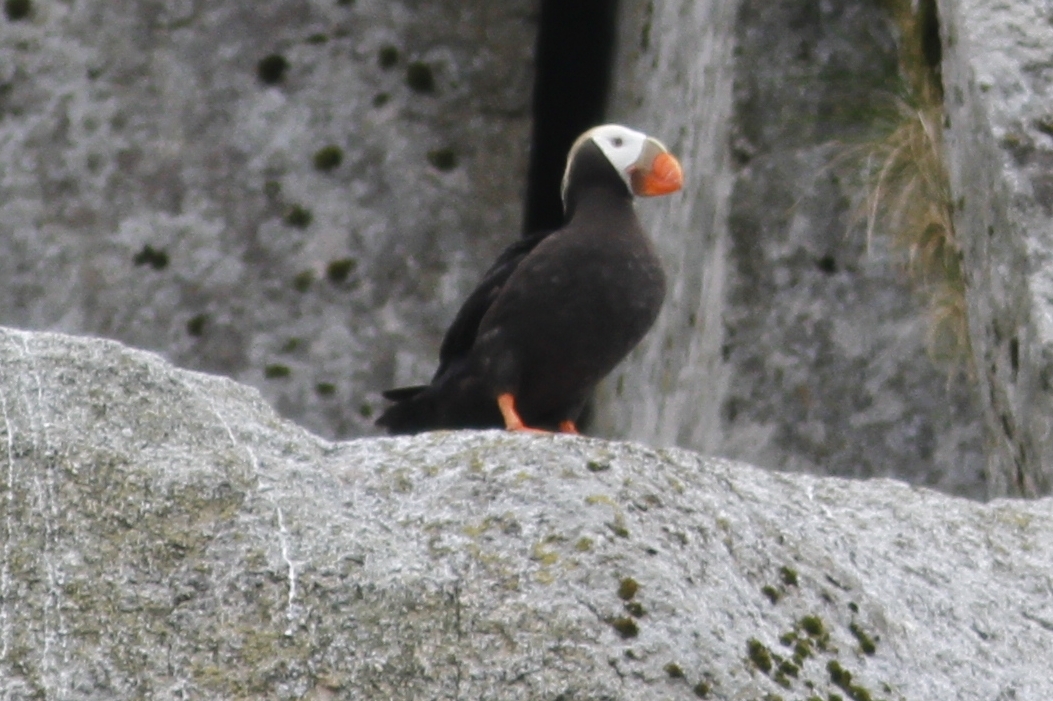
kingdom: Animalia
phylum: Chordata
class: Aves
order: Charadriiformes
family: Alcidae
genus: Fratercula
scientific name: Fratercula cirrhata
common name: Tufted puffin
